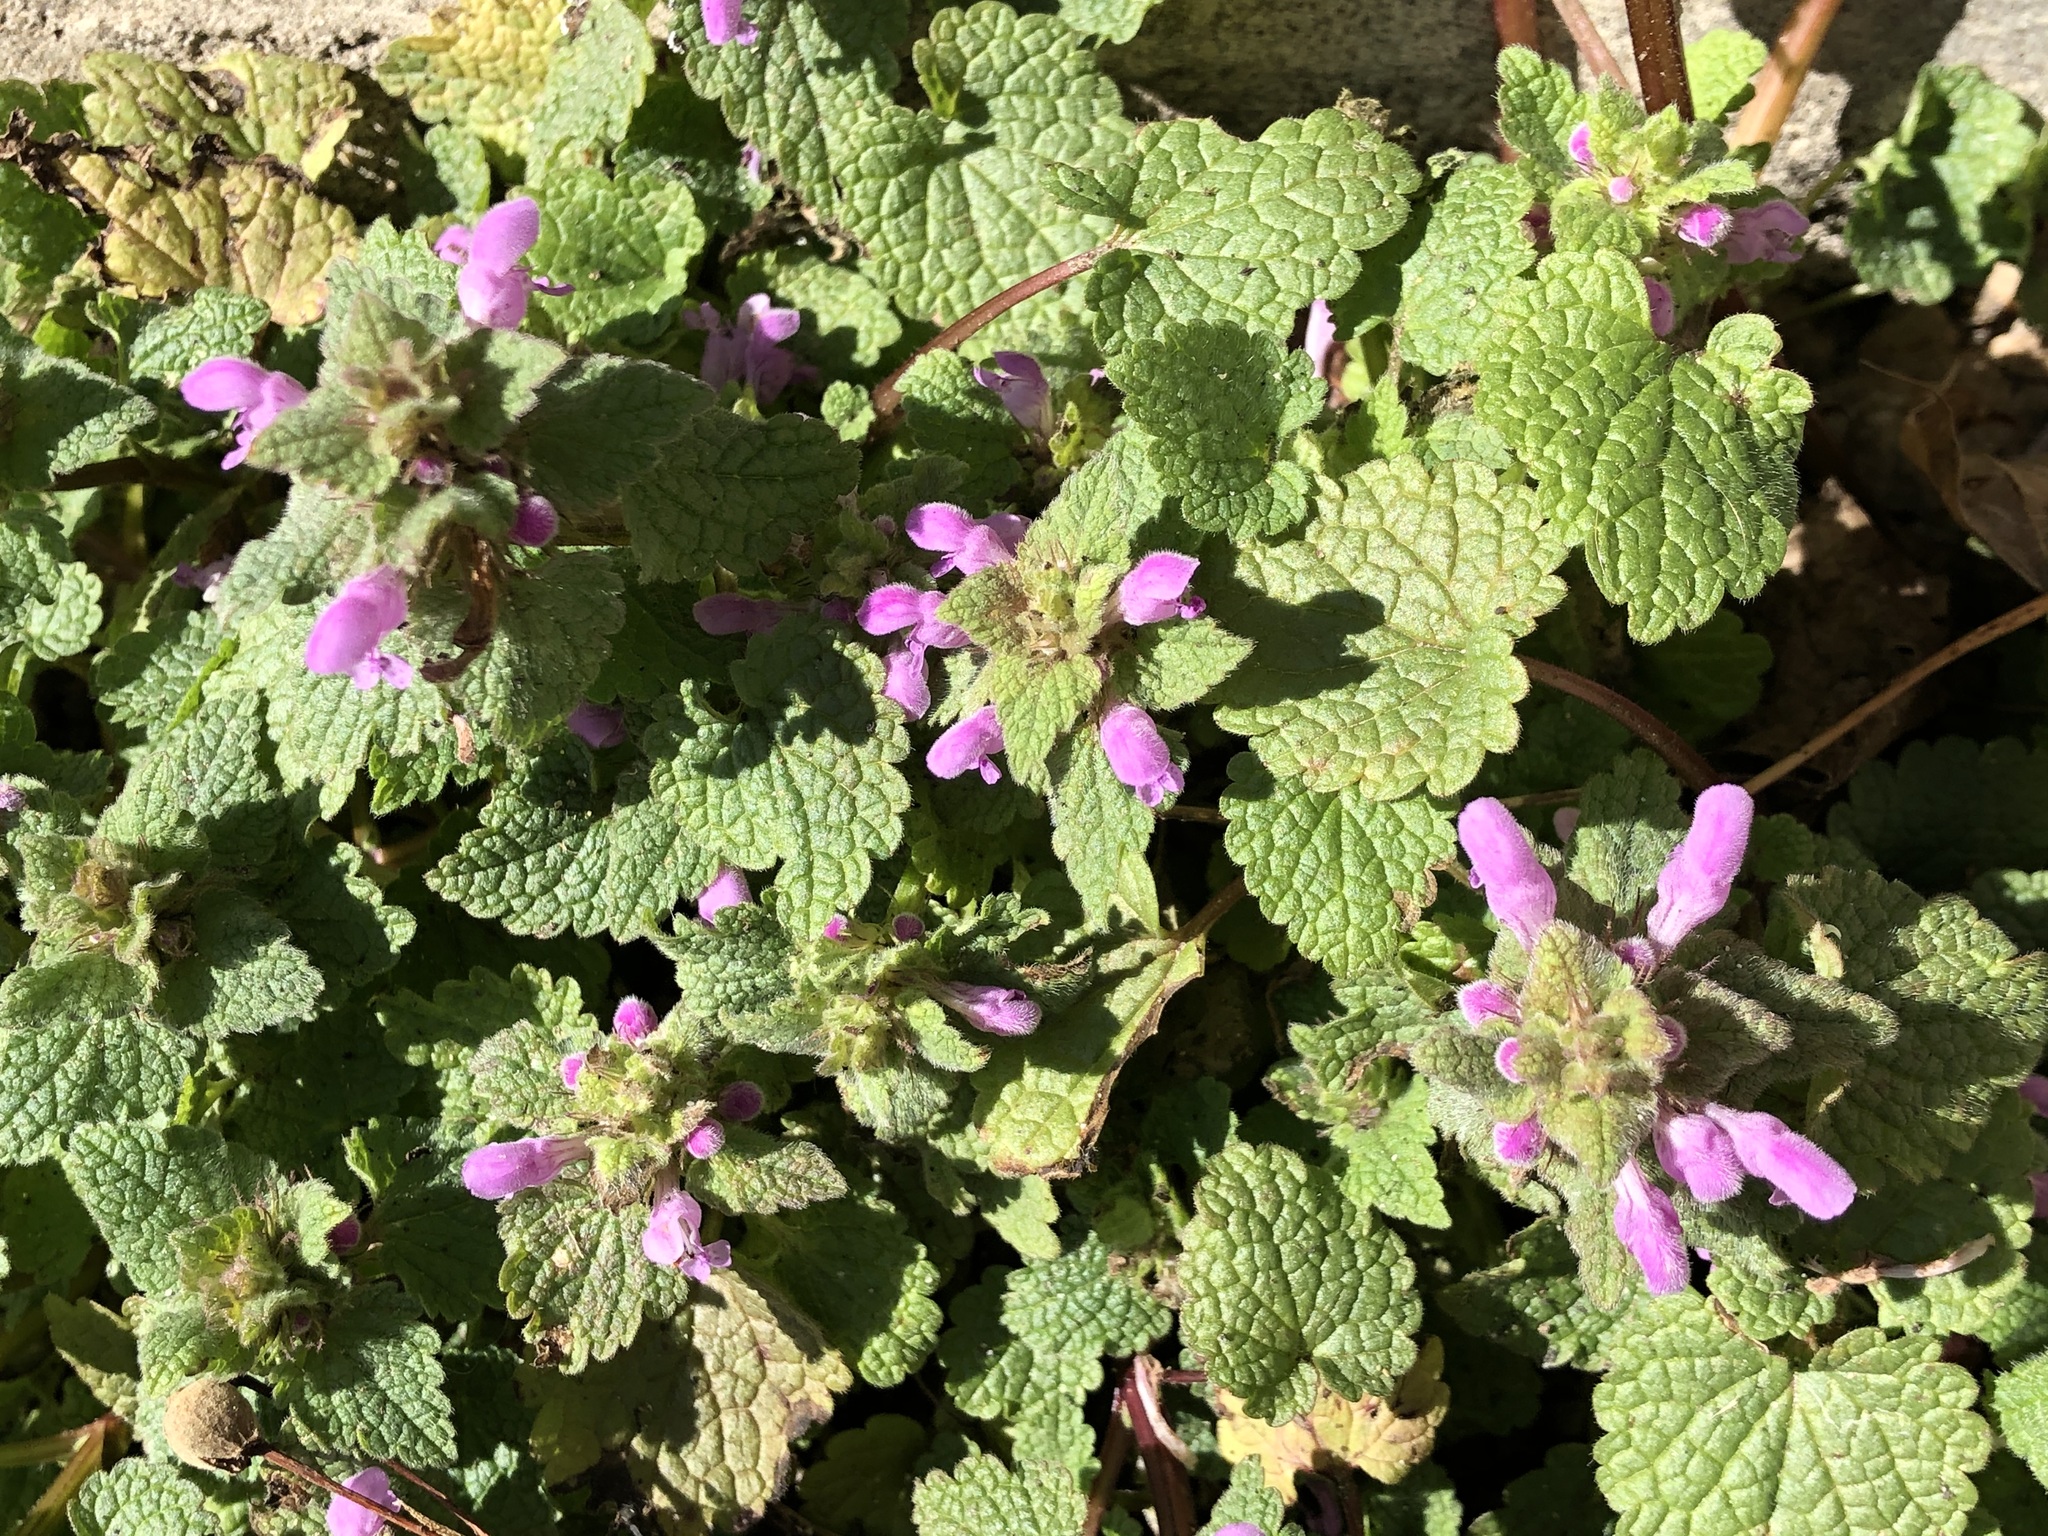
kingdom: Plantae
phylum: Tracheophyta
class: Magnoliopsida
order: Lamiales
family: Lamiaceae
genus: Lamium
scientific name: Lamium purpureum
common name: Red dead-nettle
